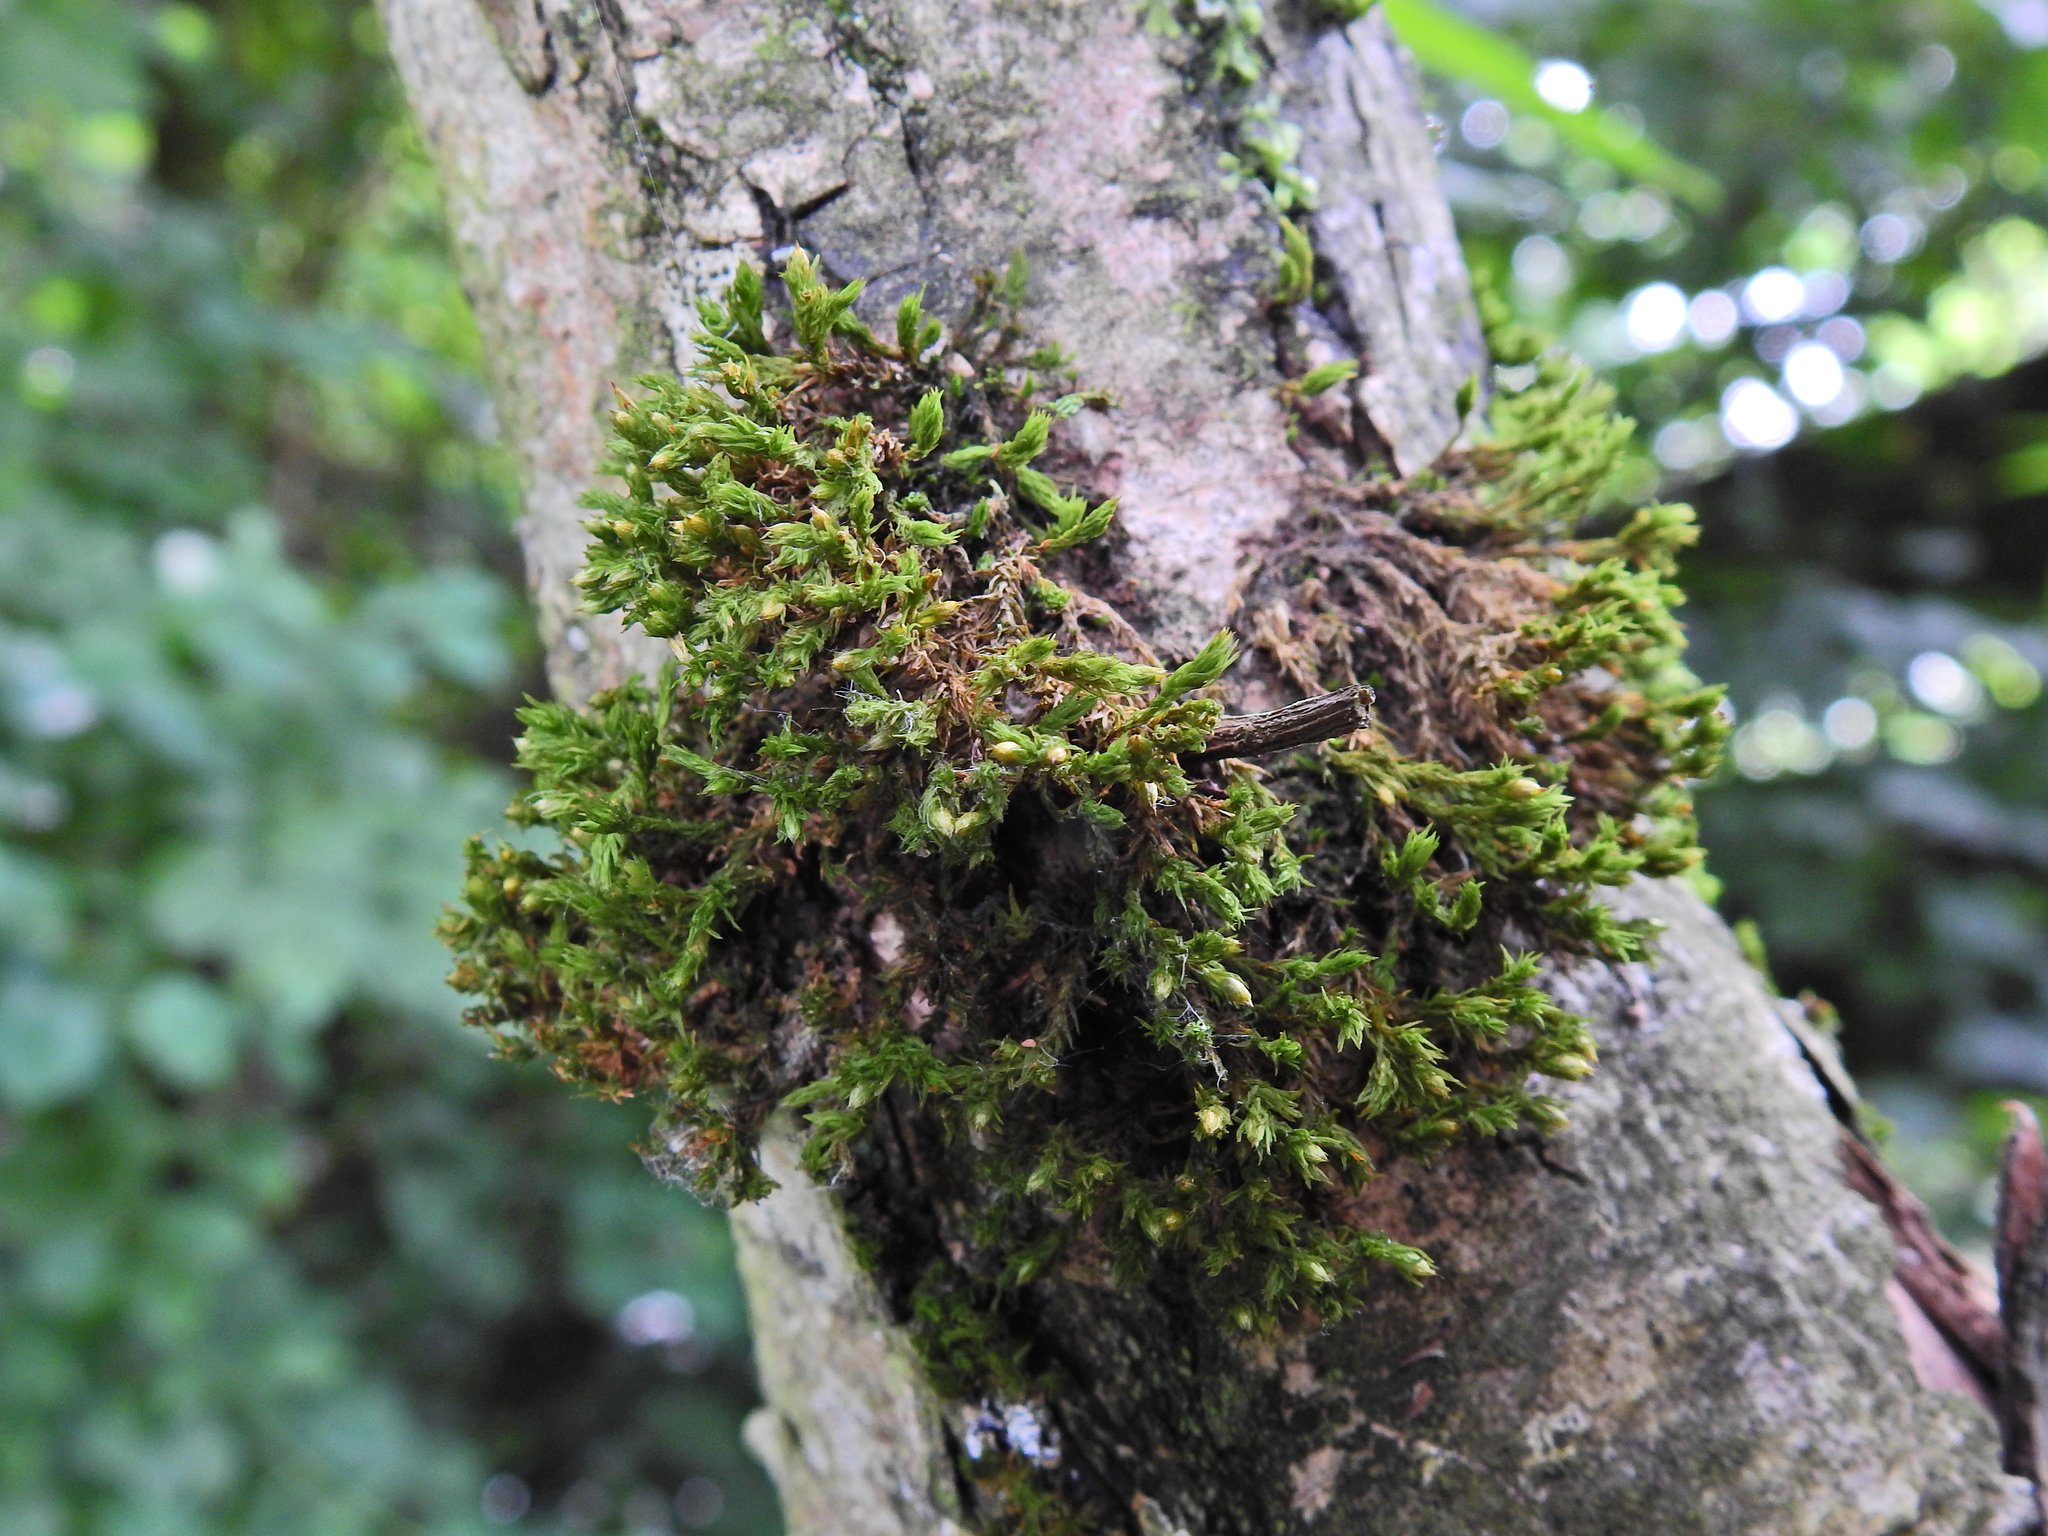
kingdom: Plantae
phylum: Bryophyta
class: Bryopsida
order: Orthotrichales
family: Orthotrichaceae
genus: Lewinskya
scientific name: Lewinskya affinis
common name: Wood bristle-moss
